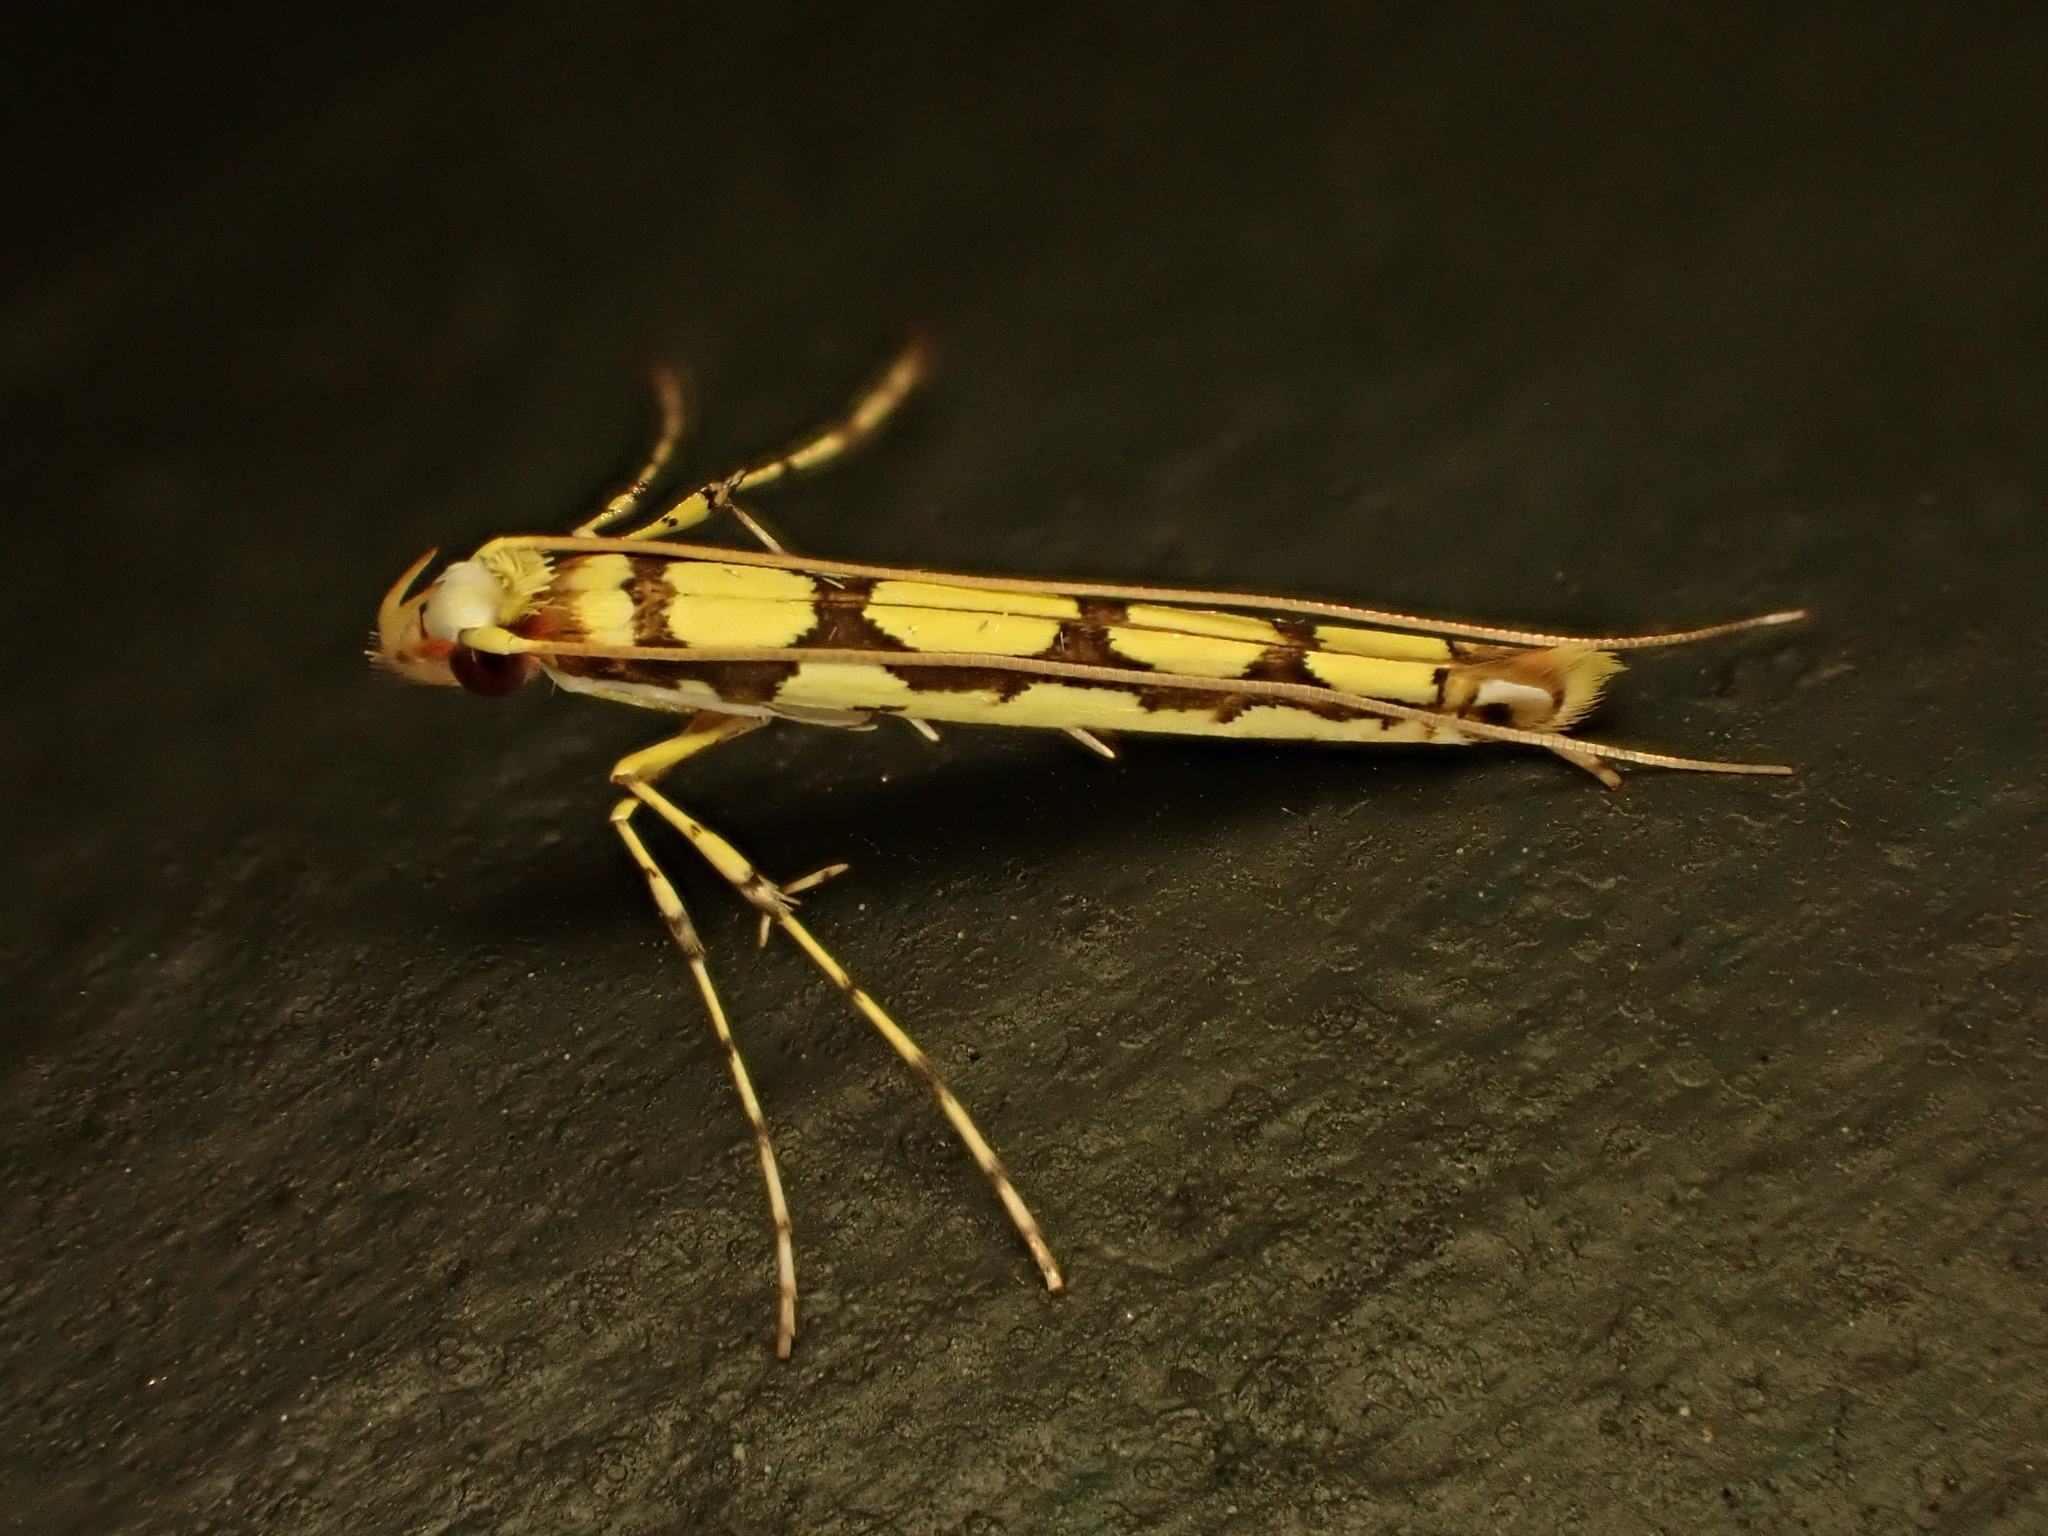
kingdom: Animalia
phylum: Arthropoda
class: Insecta
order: Lepidoptera
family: Gracillariidae
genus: Macarostola
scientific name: Macarostola miniella
